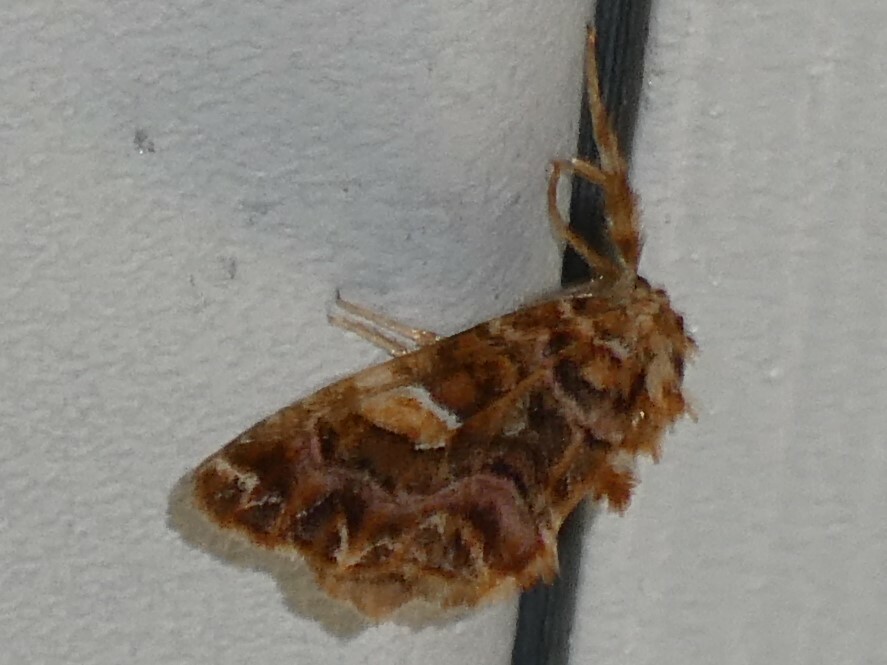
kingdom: Animalia
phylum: Arthropoda
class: Insecta
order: Lepidoptera
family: Noctuidae
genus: Callopistria
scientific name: Callopistria mollissima
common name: Pink-shaded fern moth
